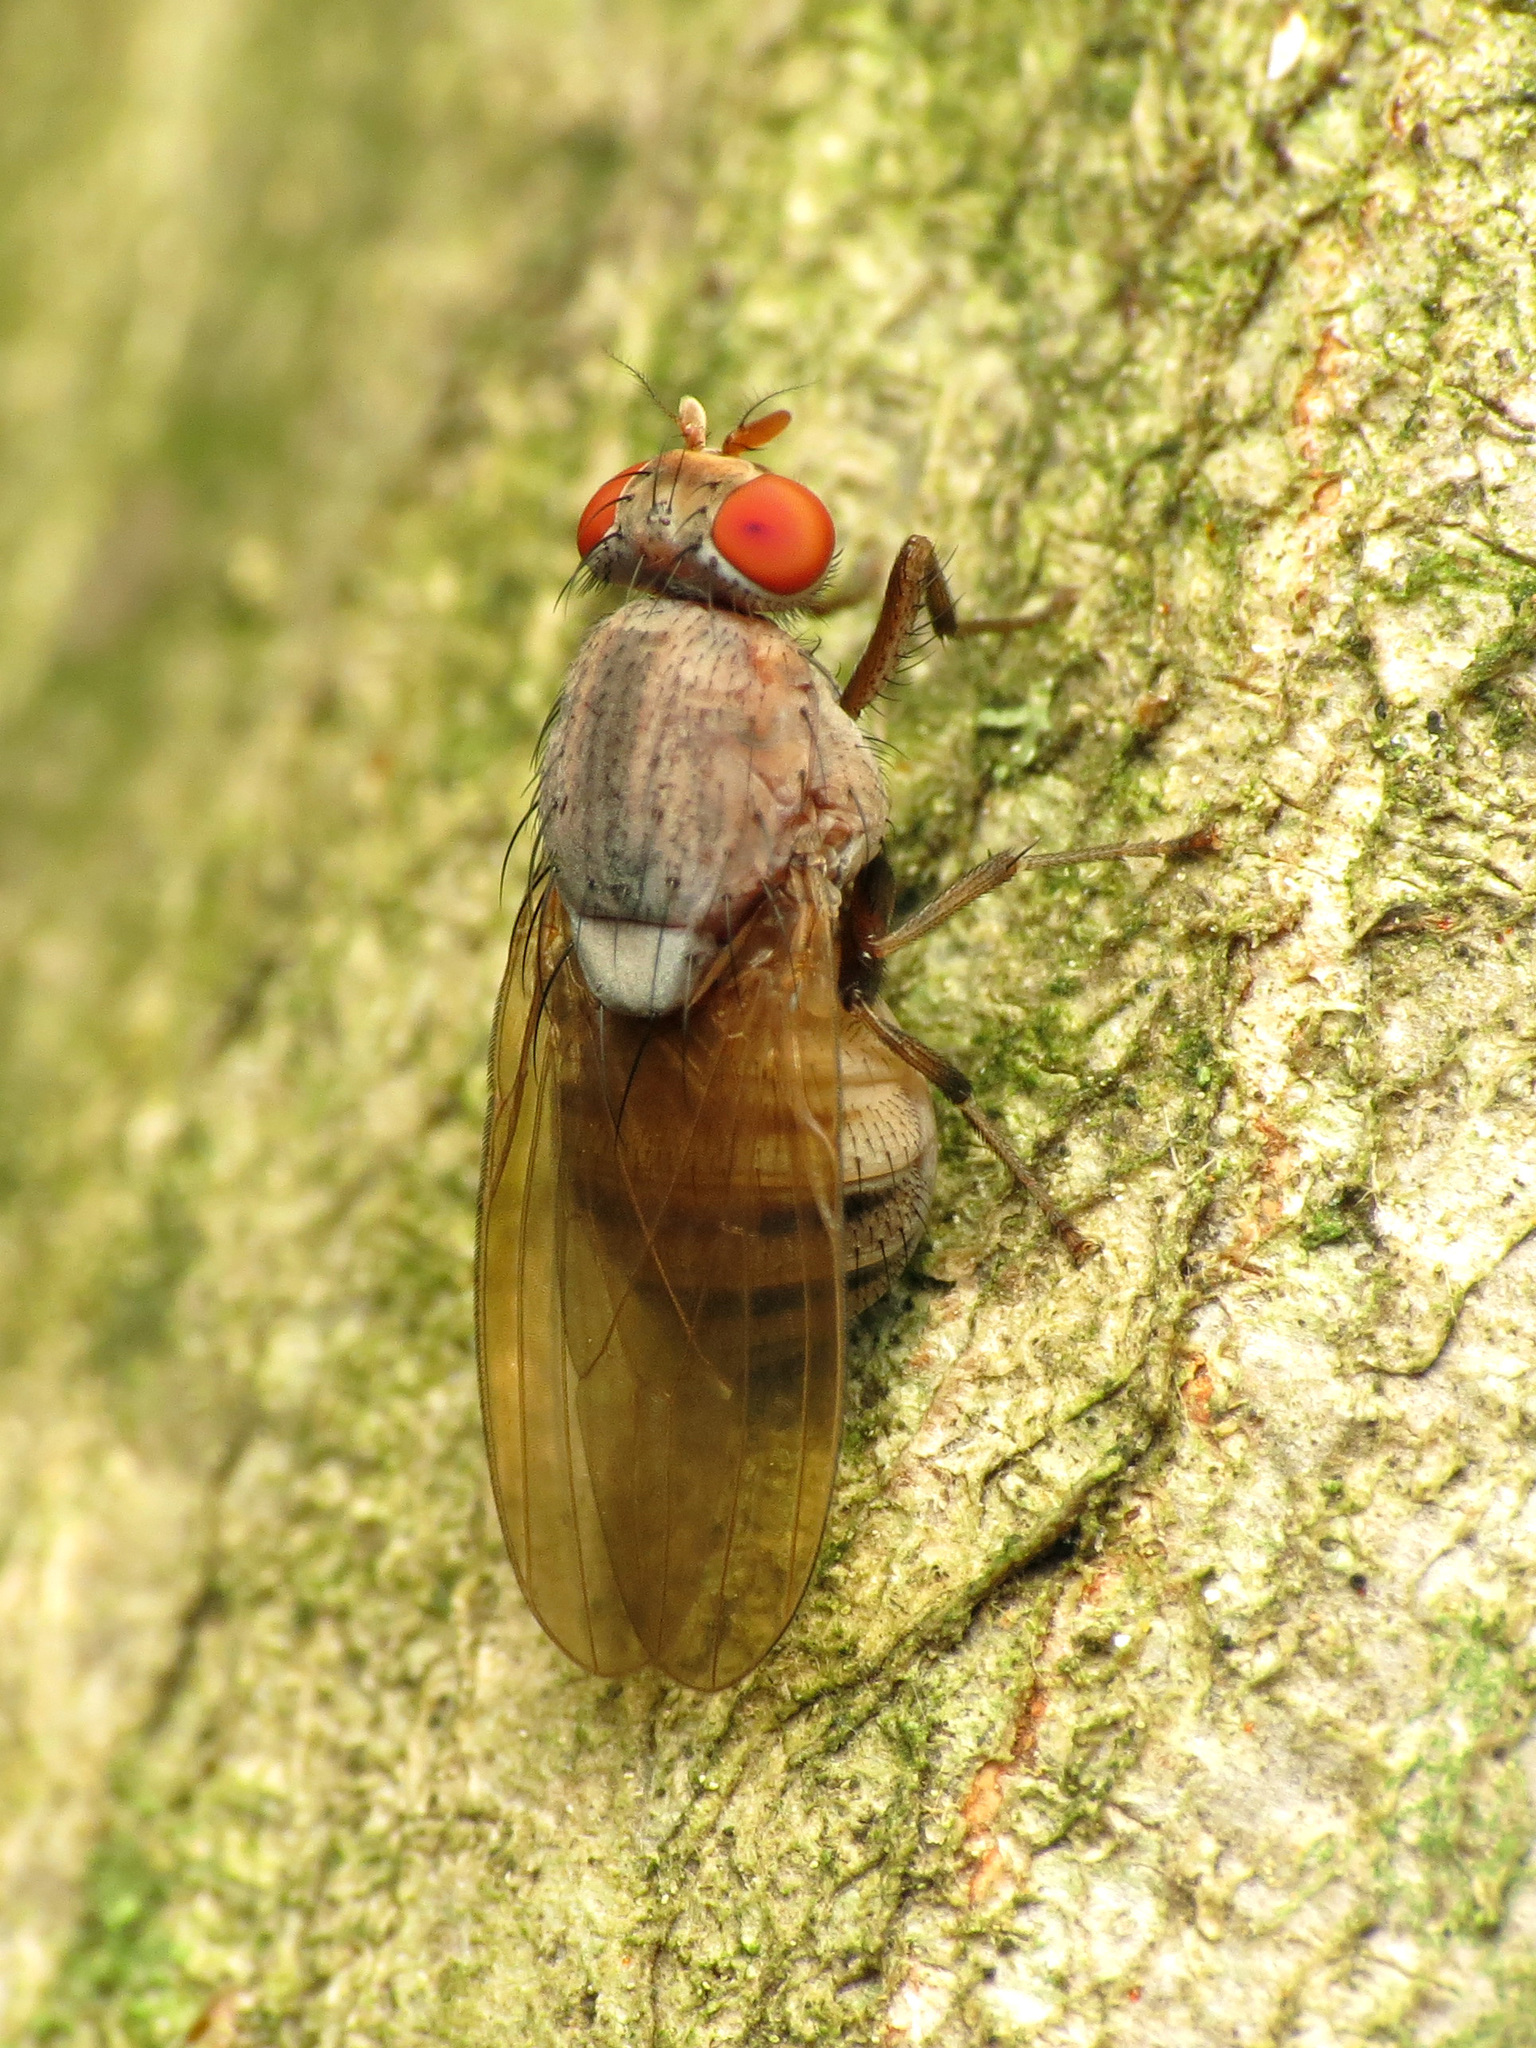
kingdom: Animalia
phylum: Arthropoda
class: Insecta
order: Diptera
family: Lauxaniidae
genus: Minettia
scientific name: Minettia magna
